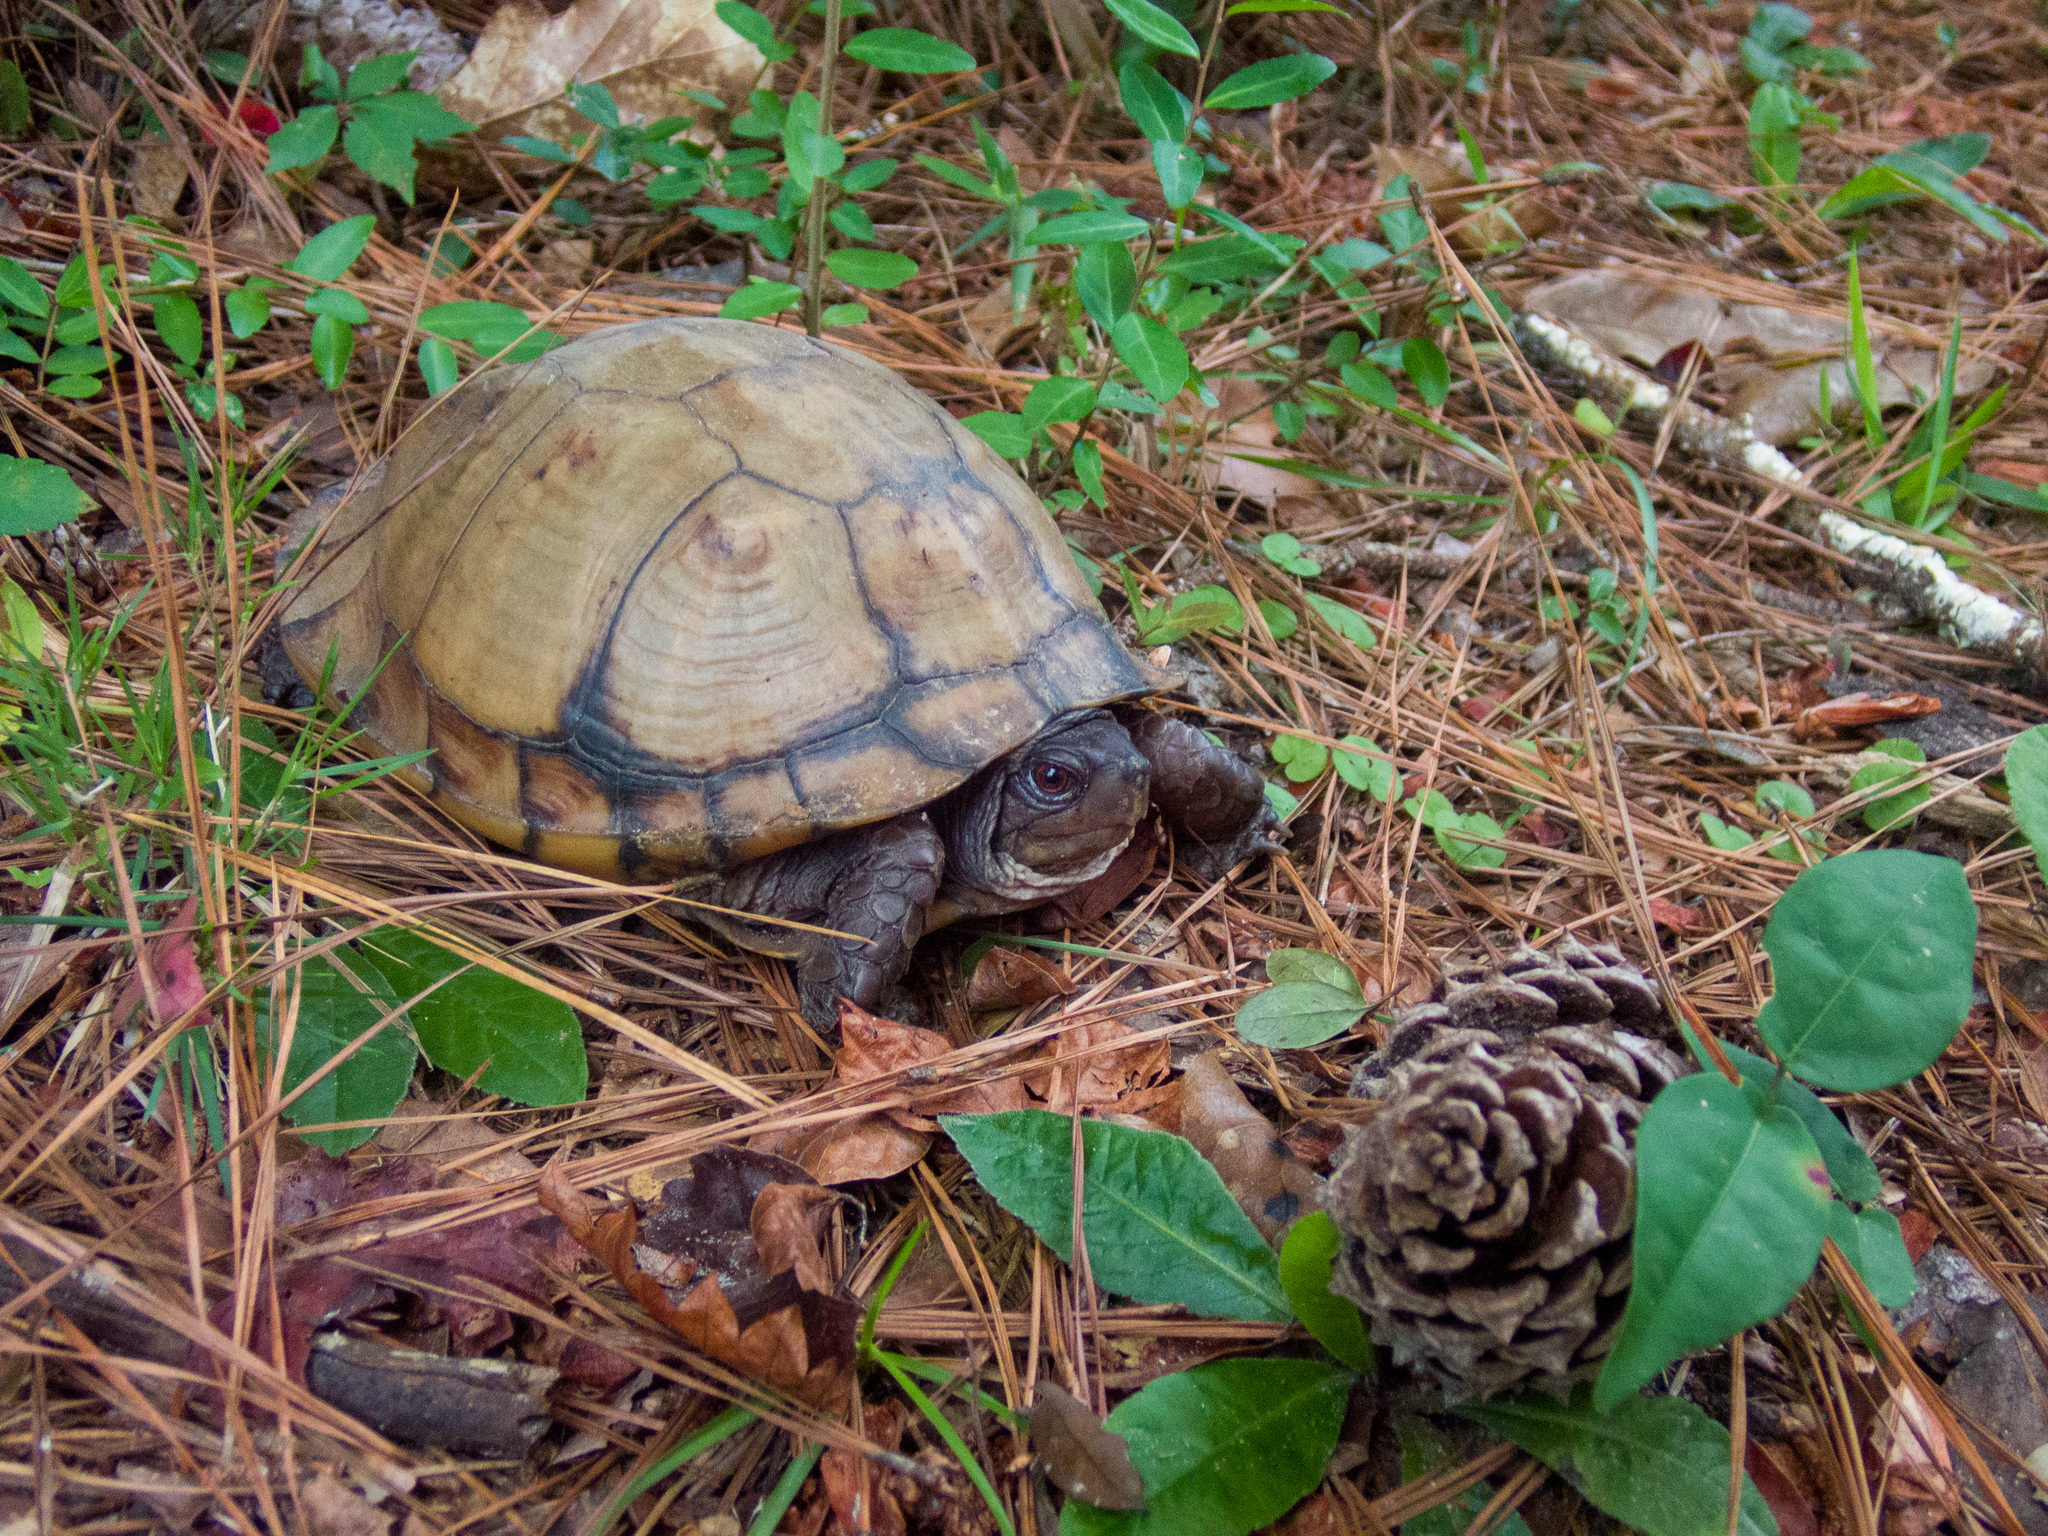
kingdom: Animalia
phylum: Chordata
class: Testudines
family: Emydidae
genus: Terrapene
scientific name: Terrapene carolina
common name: Common box turtle
